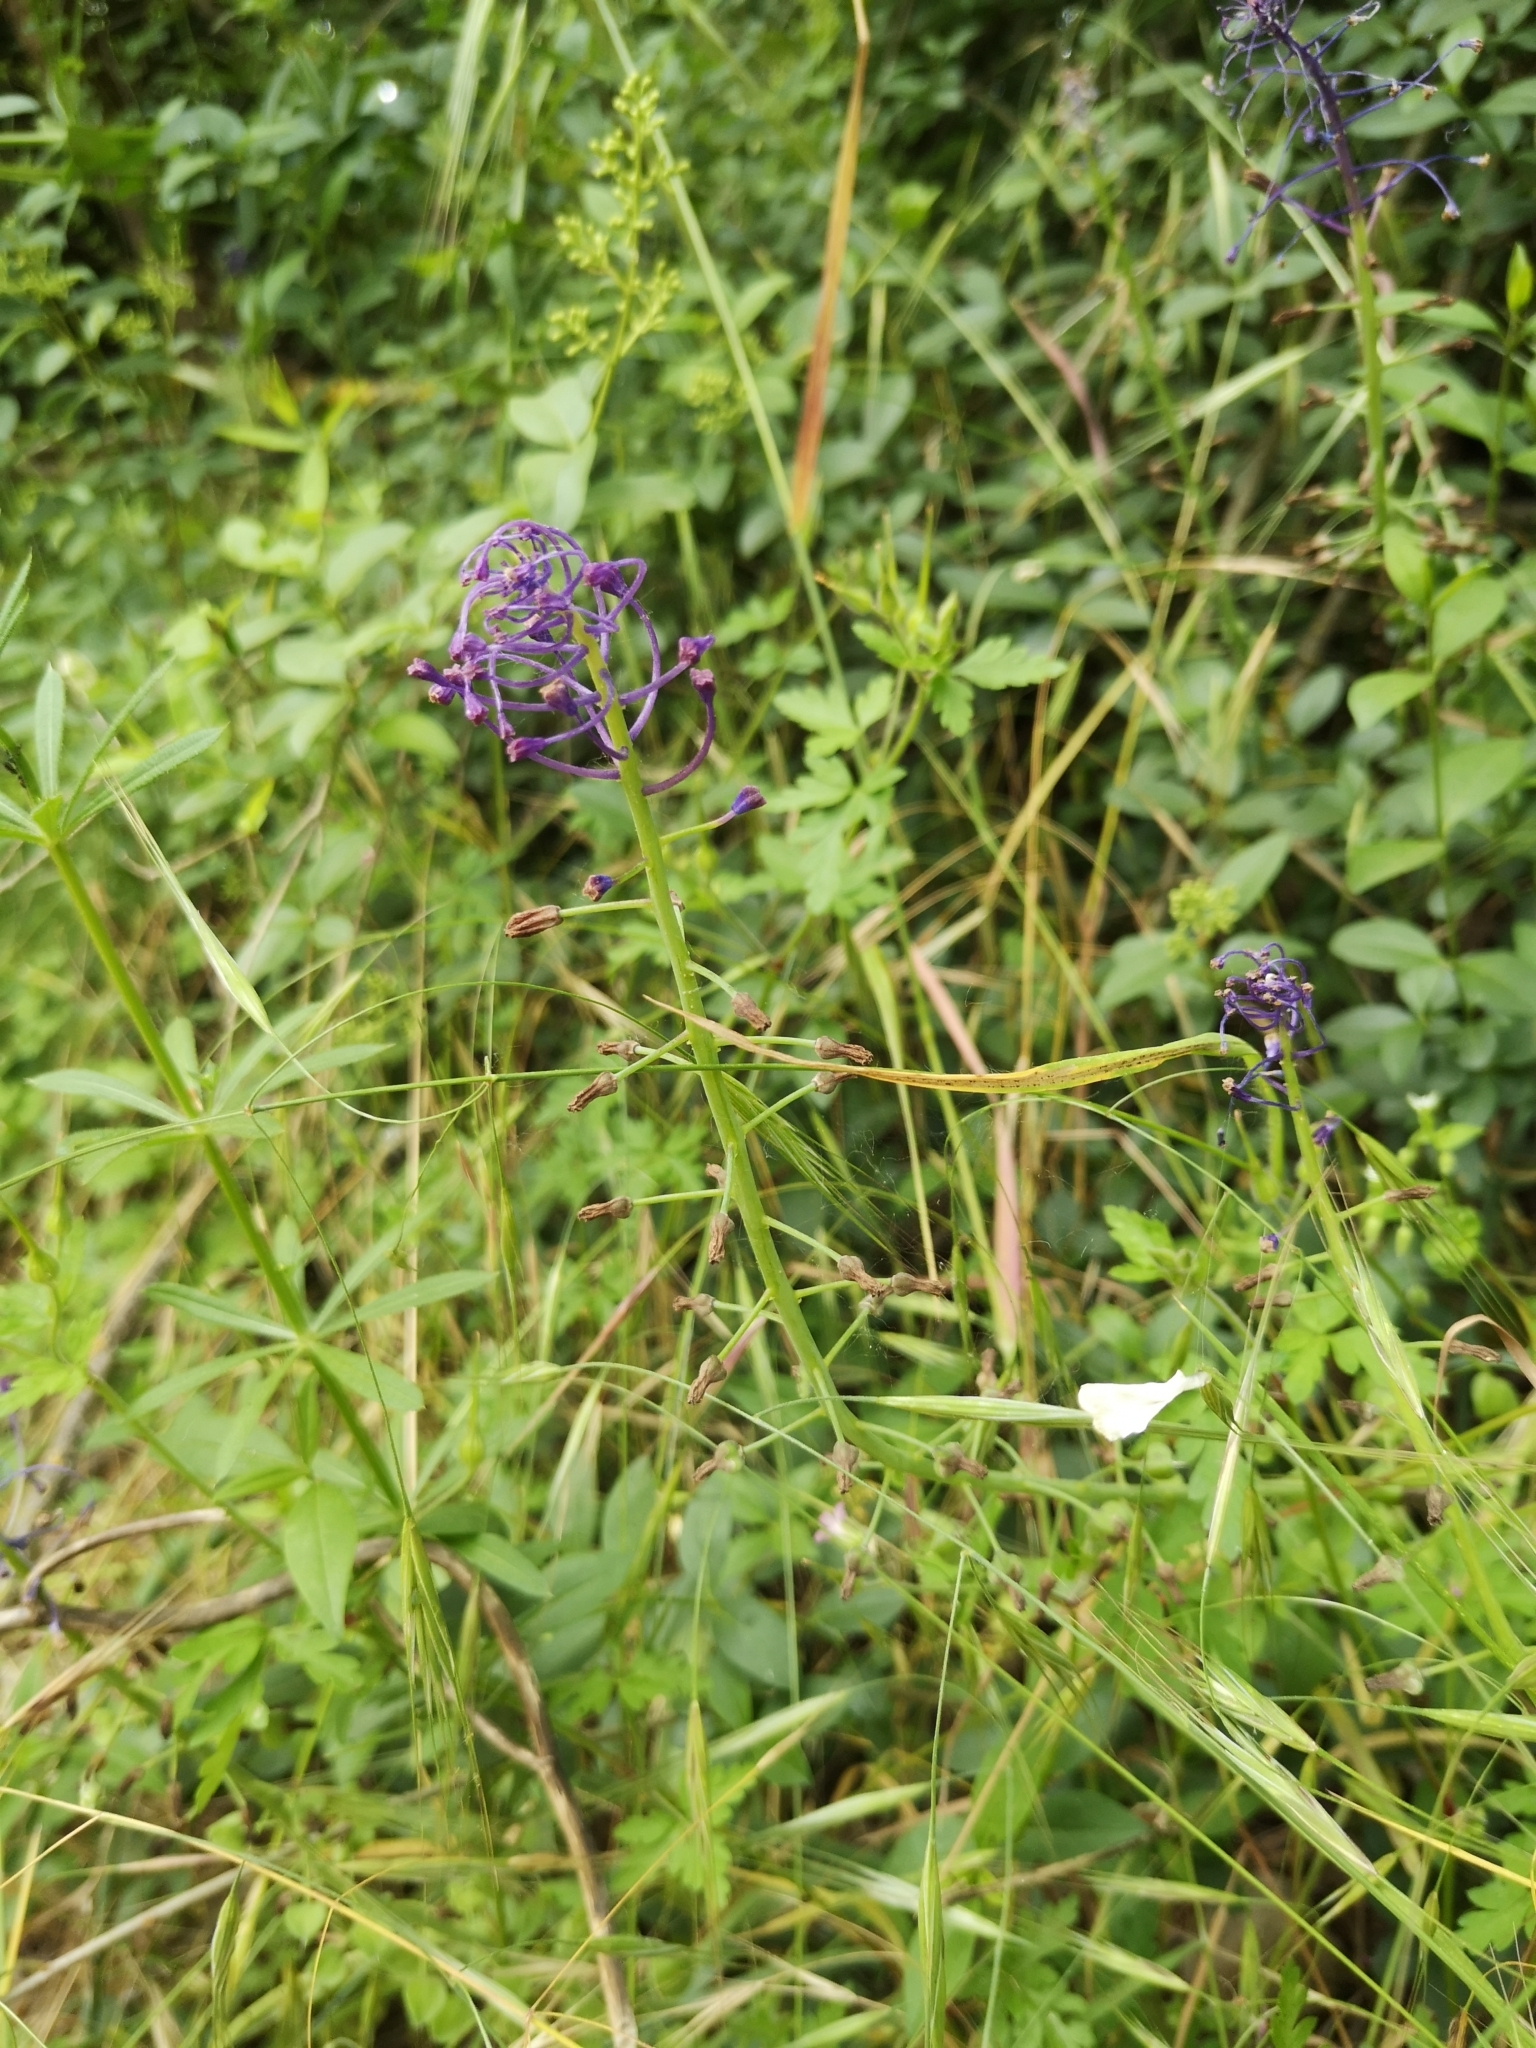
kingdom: Plantae
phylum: Tracheophyta
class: Liliopsida
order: Asparagales
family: Asparagaceae
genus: Muscari
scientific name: Muscari comosum
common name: Tassel hyacinth
